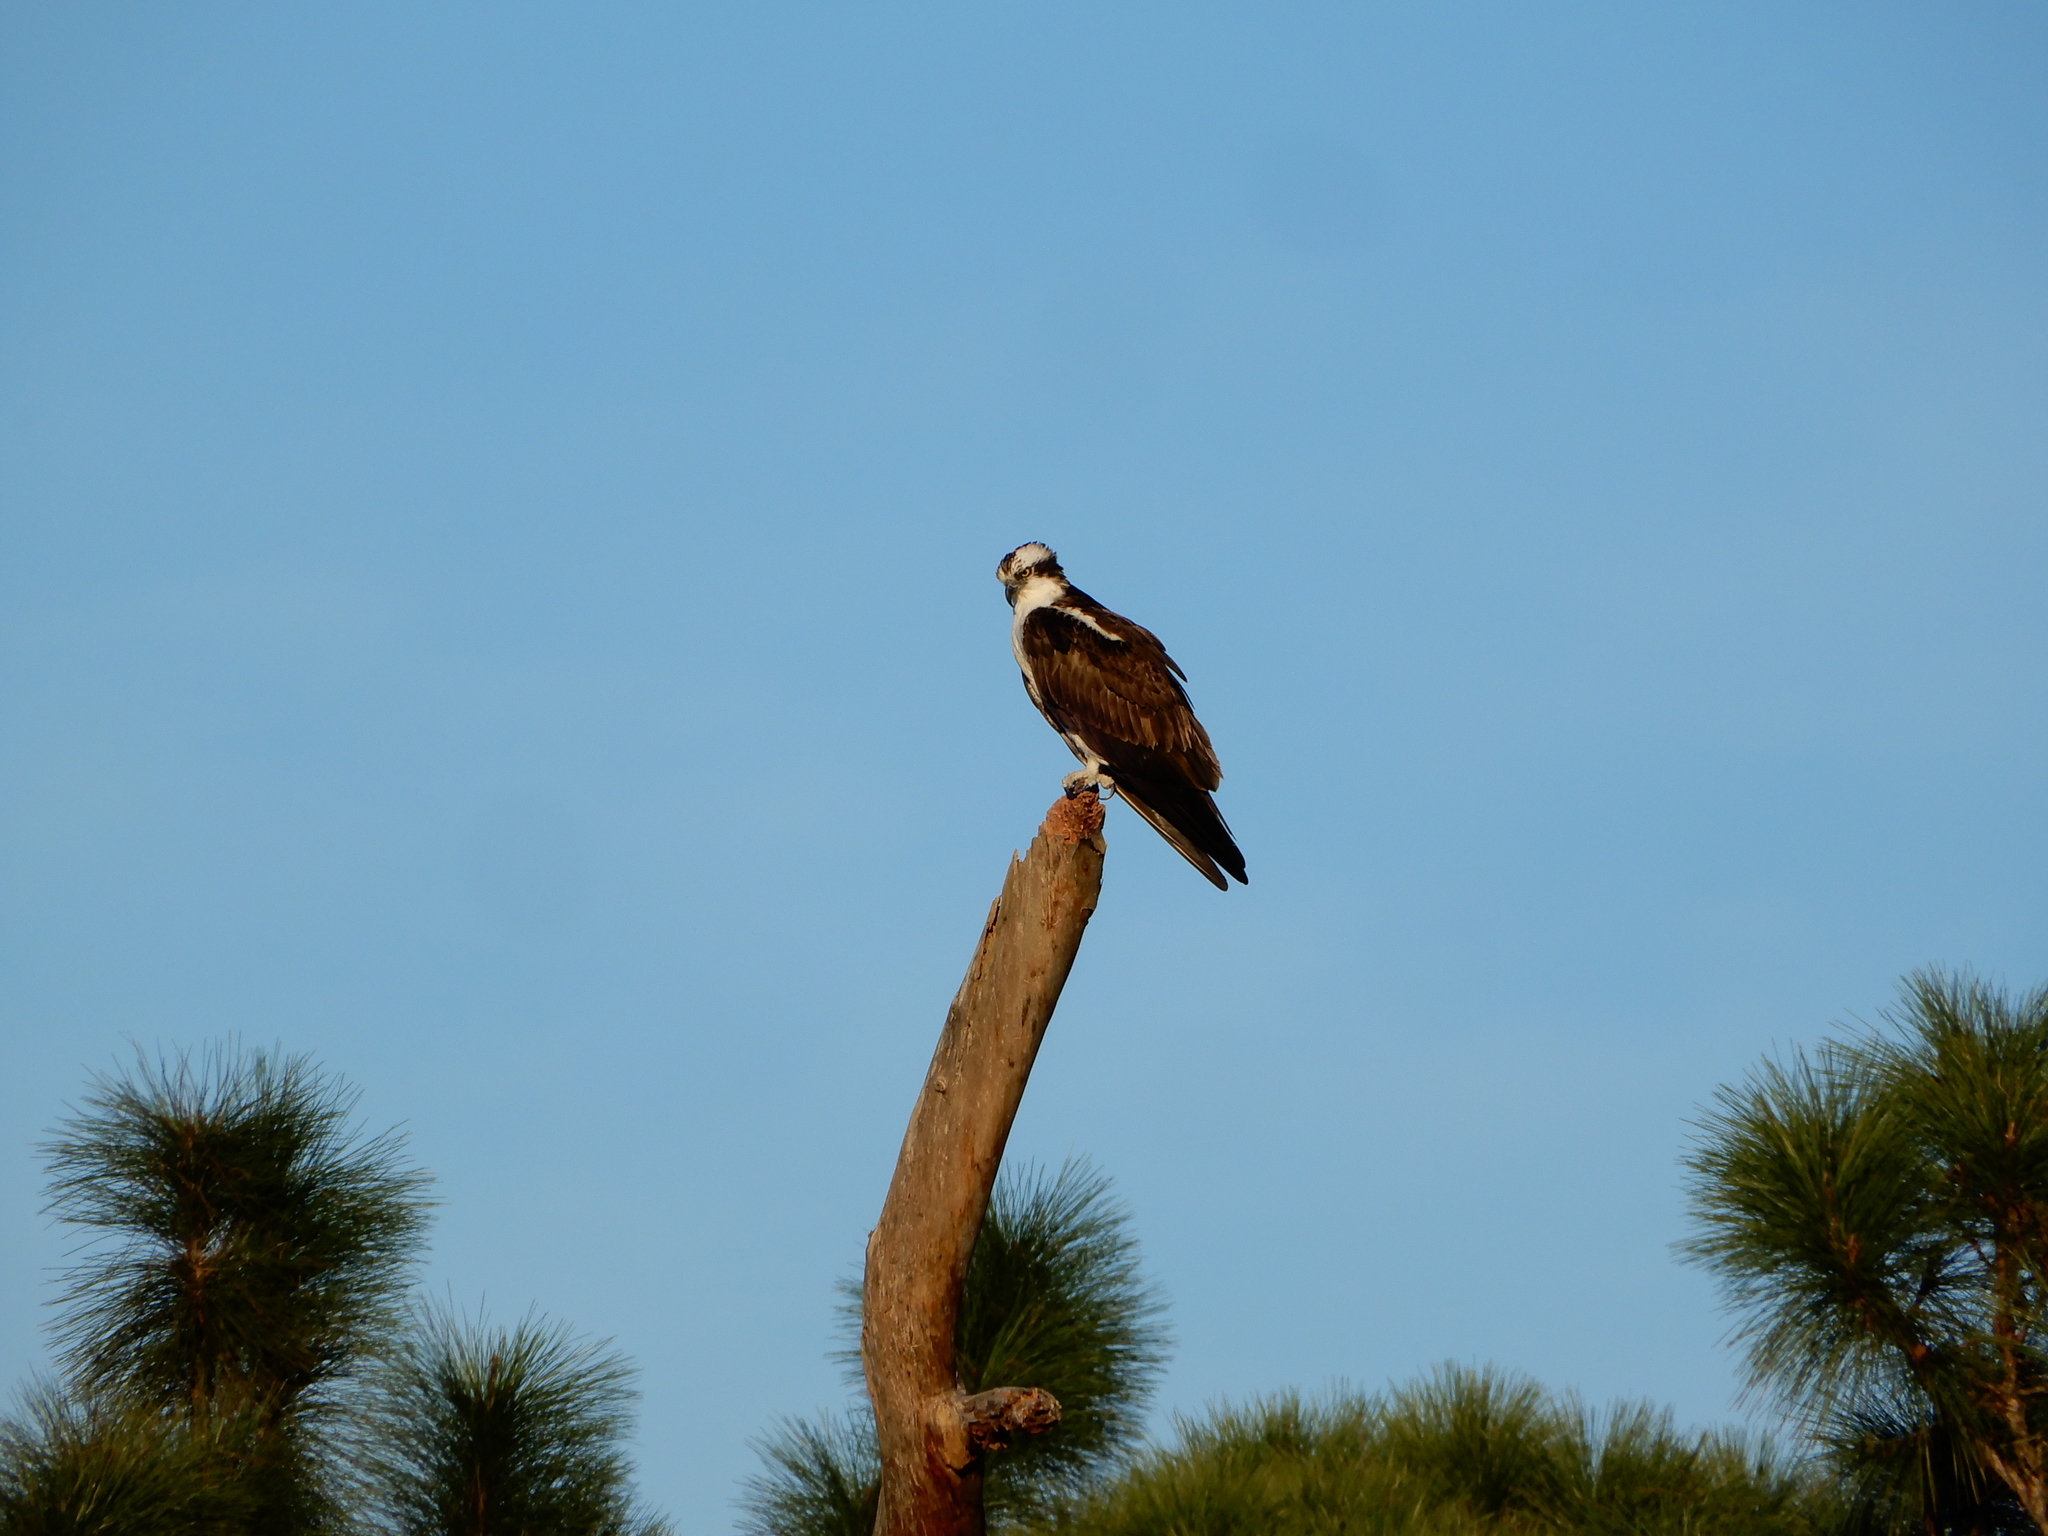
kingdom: Animalia
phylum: Chordata
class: Aves
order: Accipitriformes
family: Pandionidae
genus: Pandion
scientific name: Pandion haliaetus
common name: Osprey
